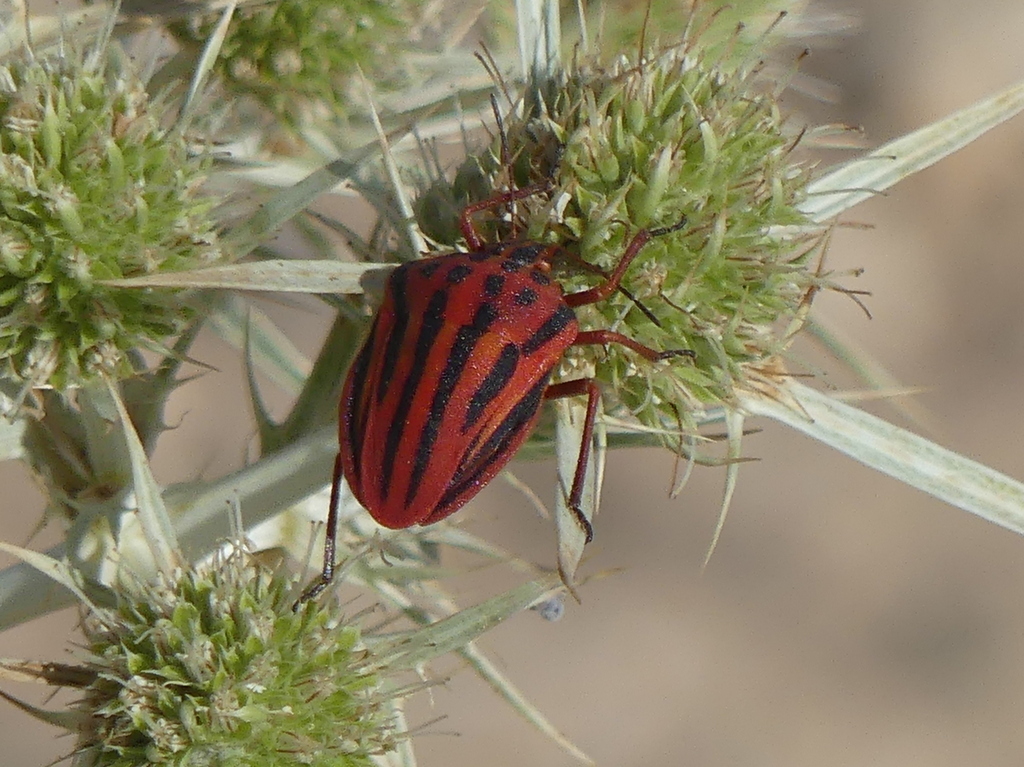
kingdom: Animalia
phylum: Arthropoda
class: Insecta
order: Hemiptera
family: Pentatomidae
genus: Graphosoma
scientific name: Graphosoma semipunctatum
